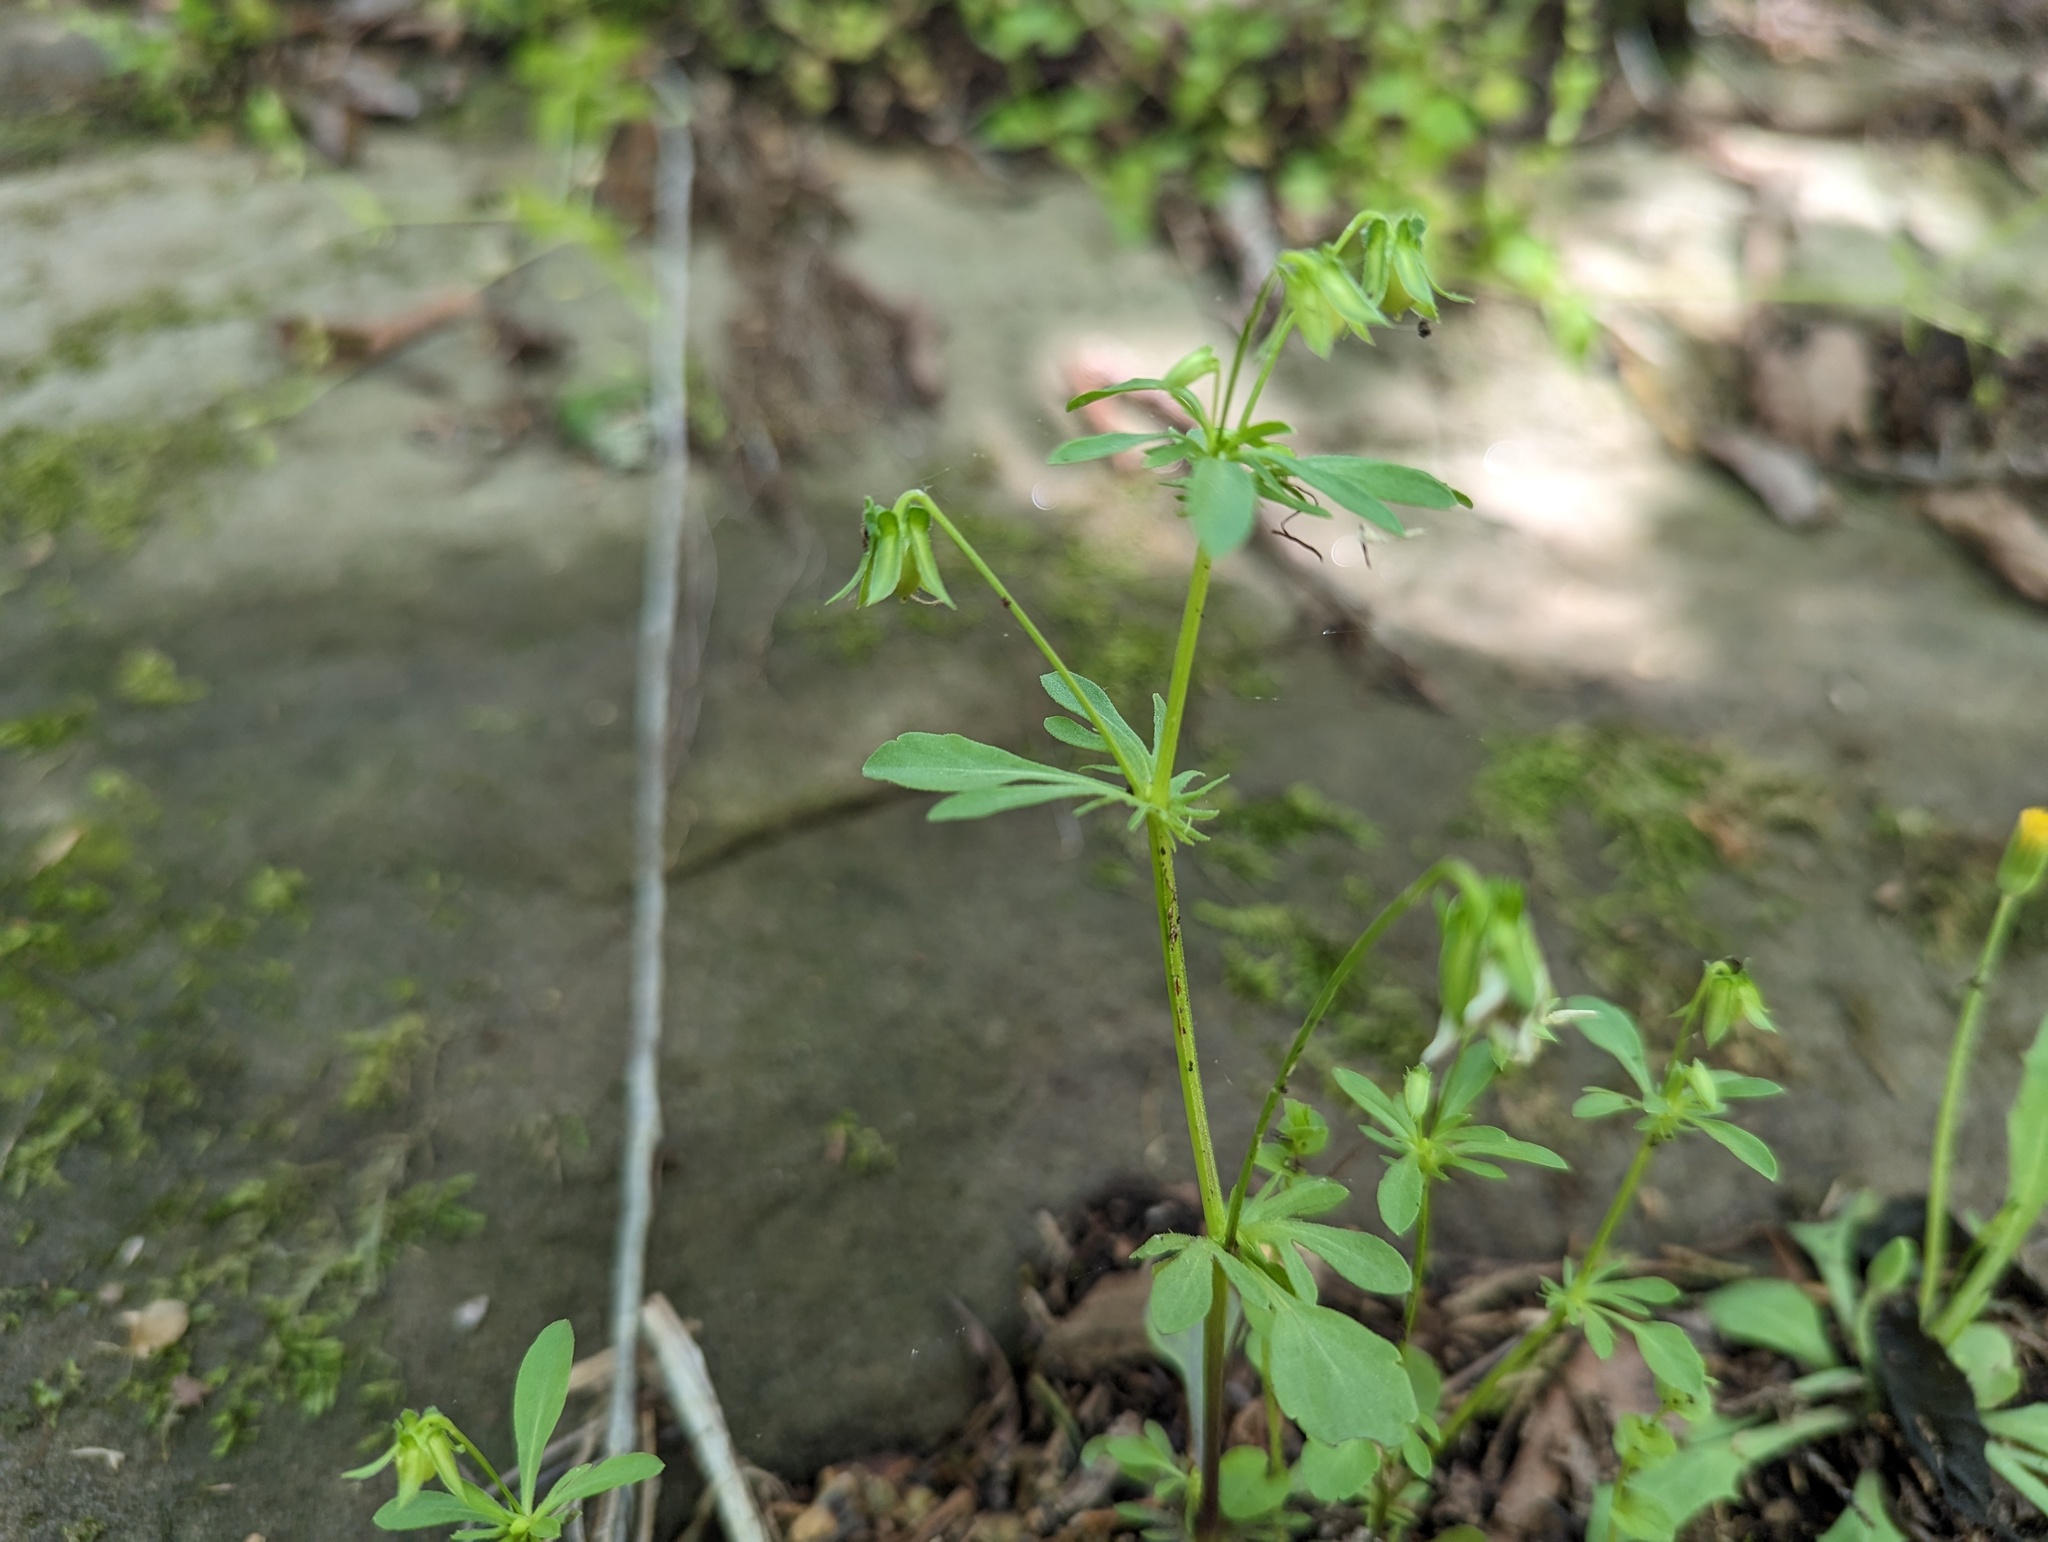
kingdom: Plantae
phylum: Tracheophyta
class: Magnoliopsida
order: Malpighiales
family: Violaceae
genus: Viola
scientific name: Viola rafinesquei
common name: American field pansy
